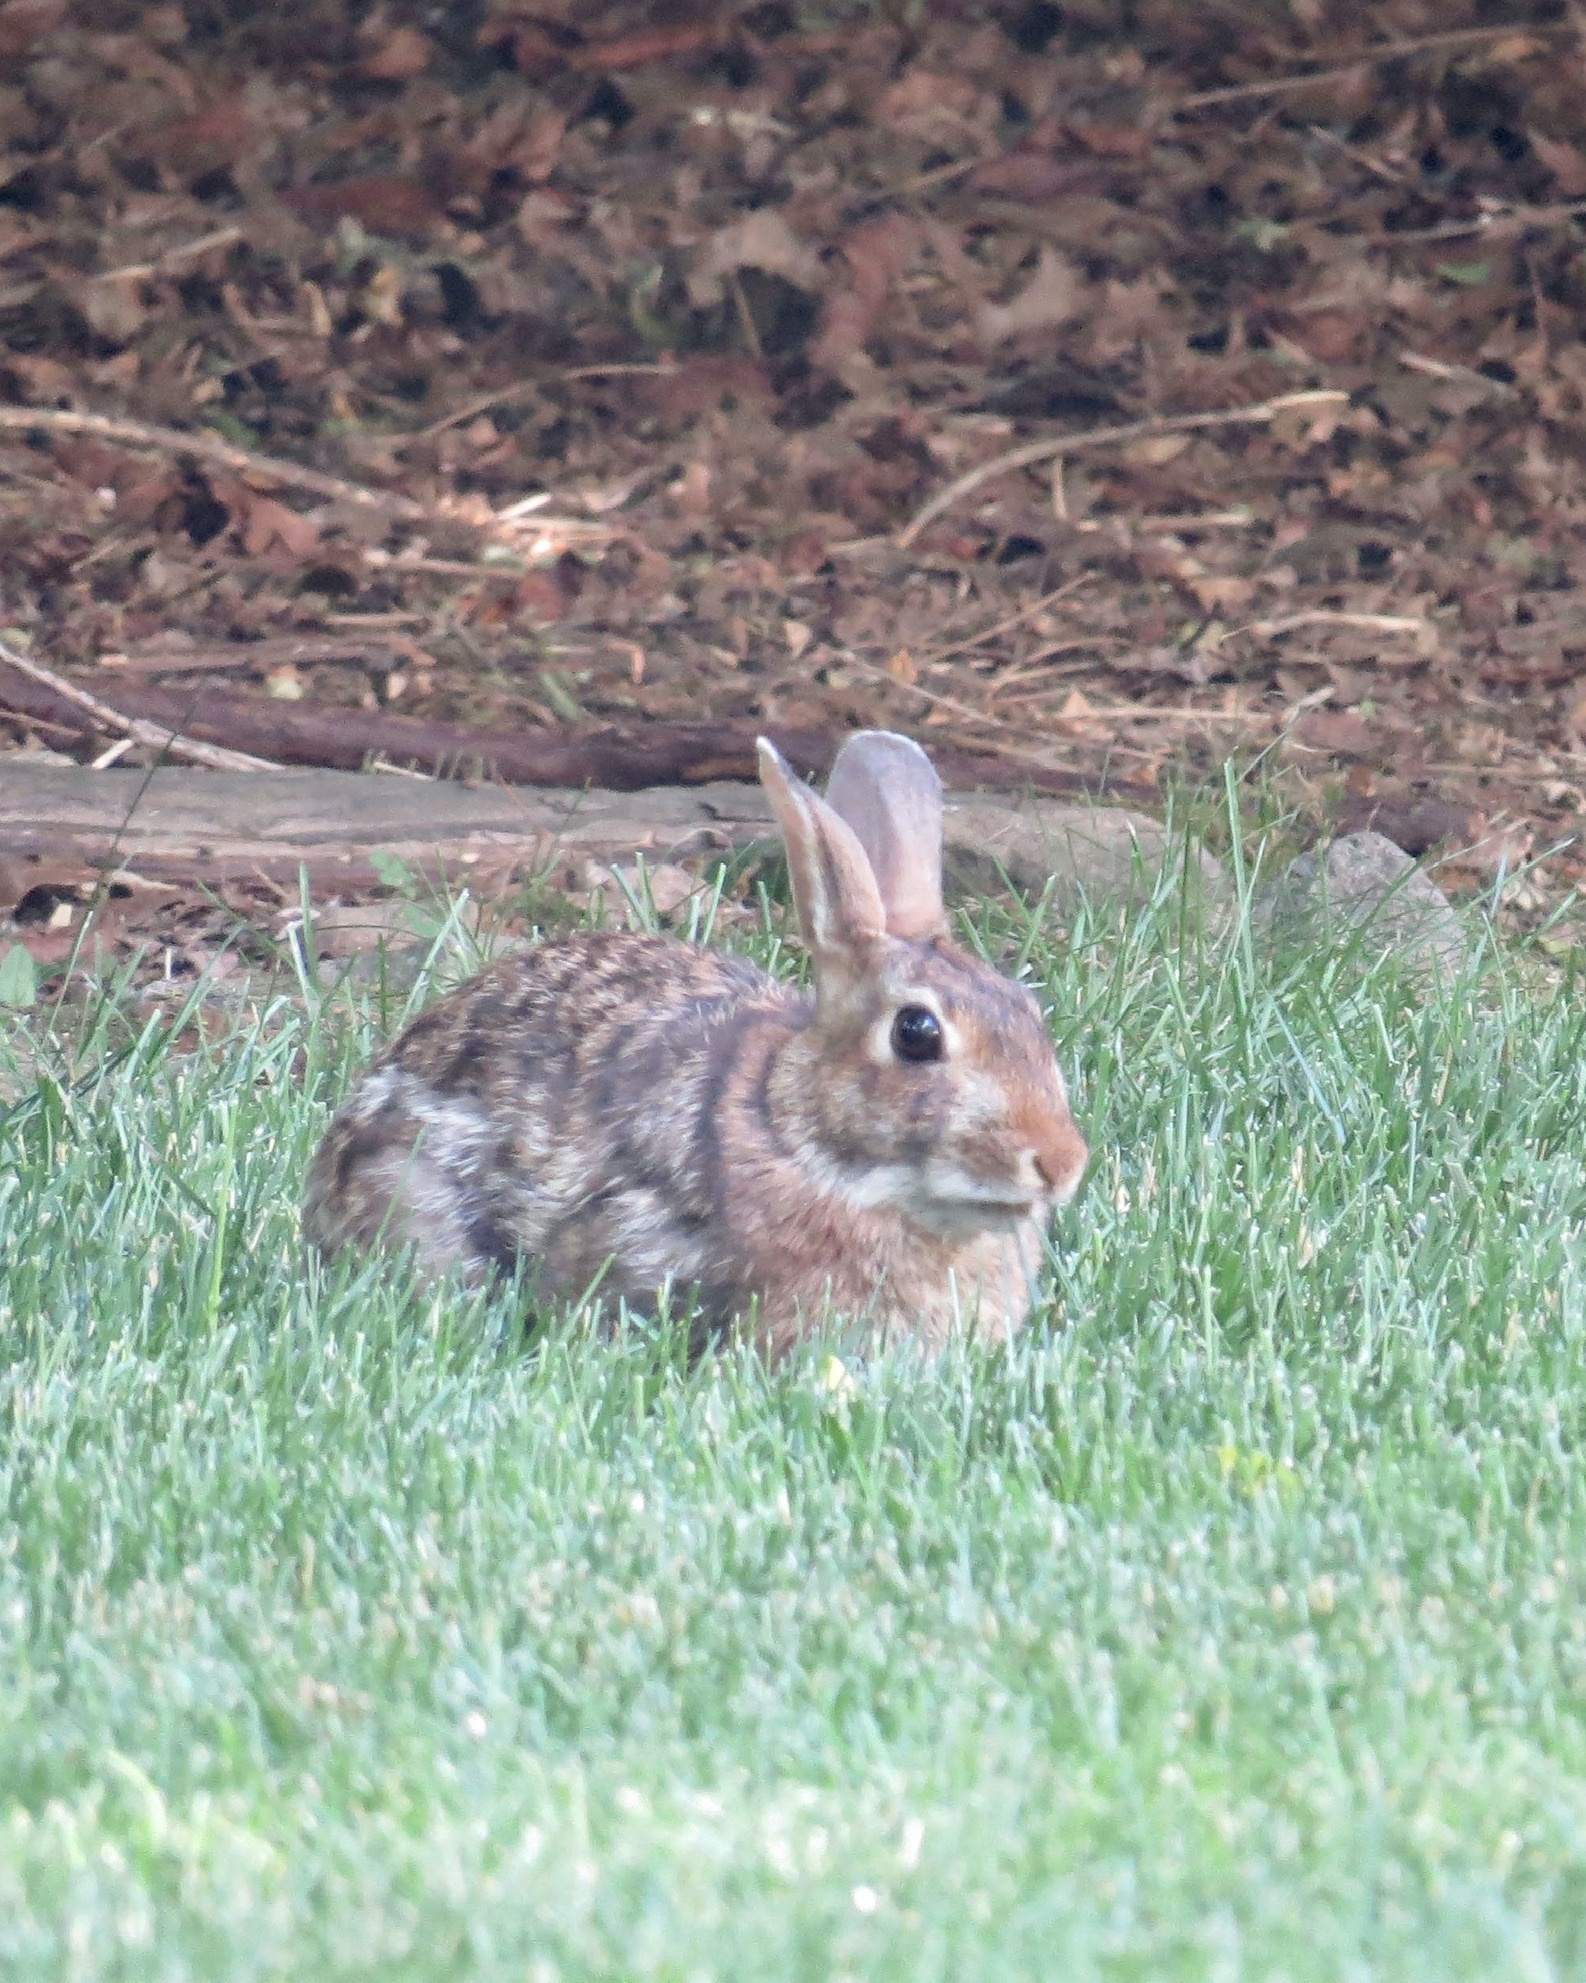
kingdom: Animalia
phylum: Chordata
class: Mammalia
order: Lagomorpha
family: Leporidae
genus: Sylvilagus
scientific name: Sylvilagus floridanus
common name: Eastern cottontail
